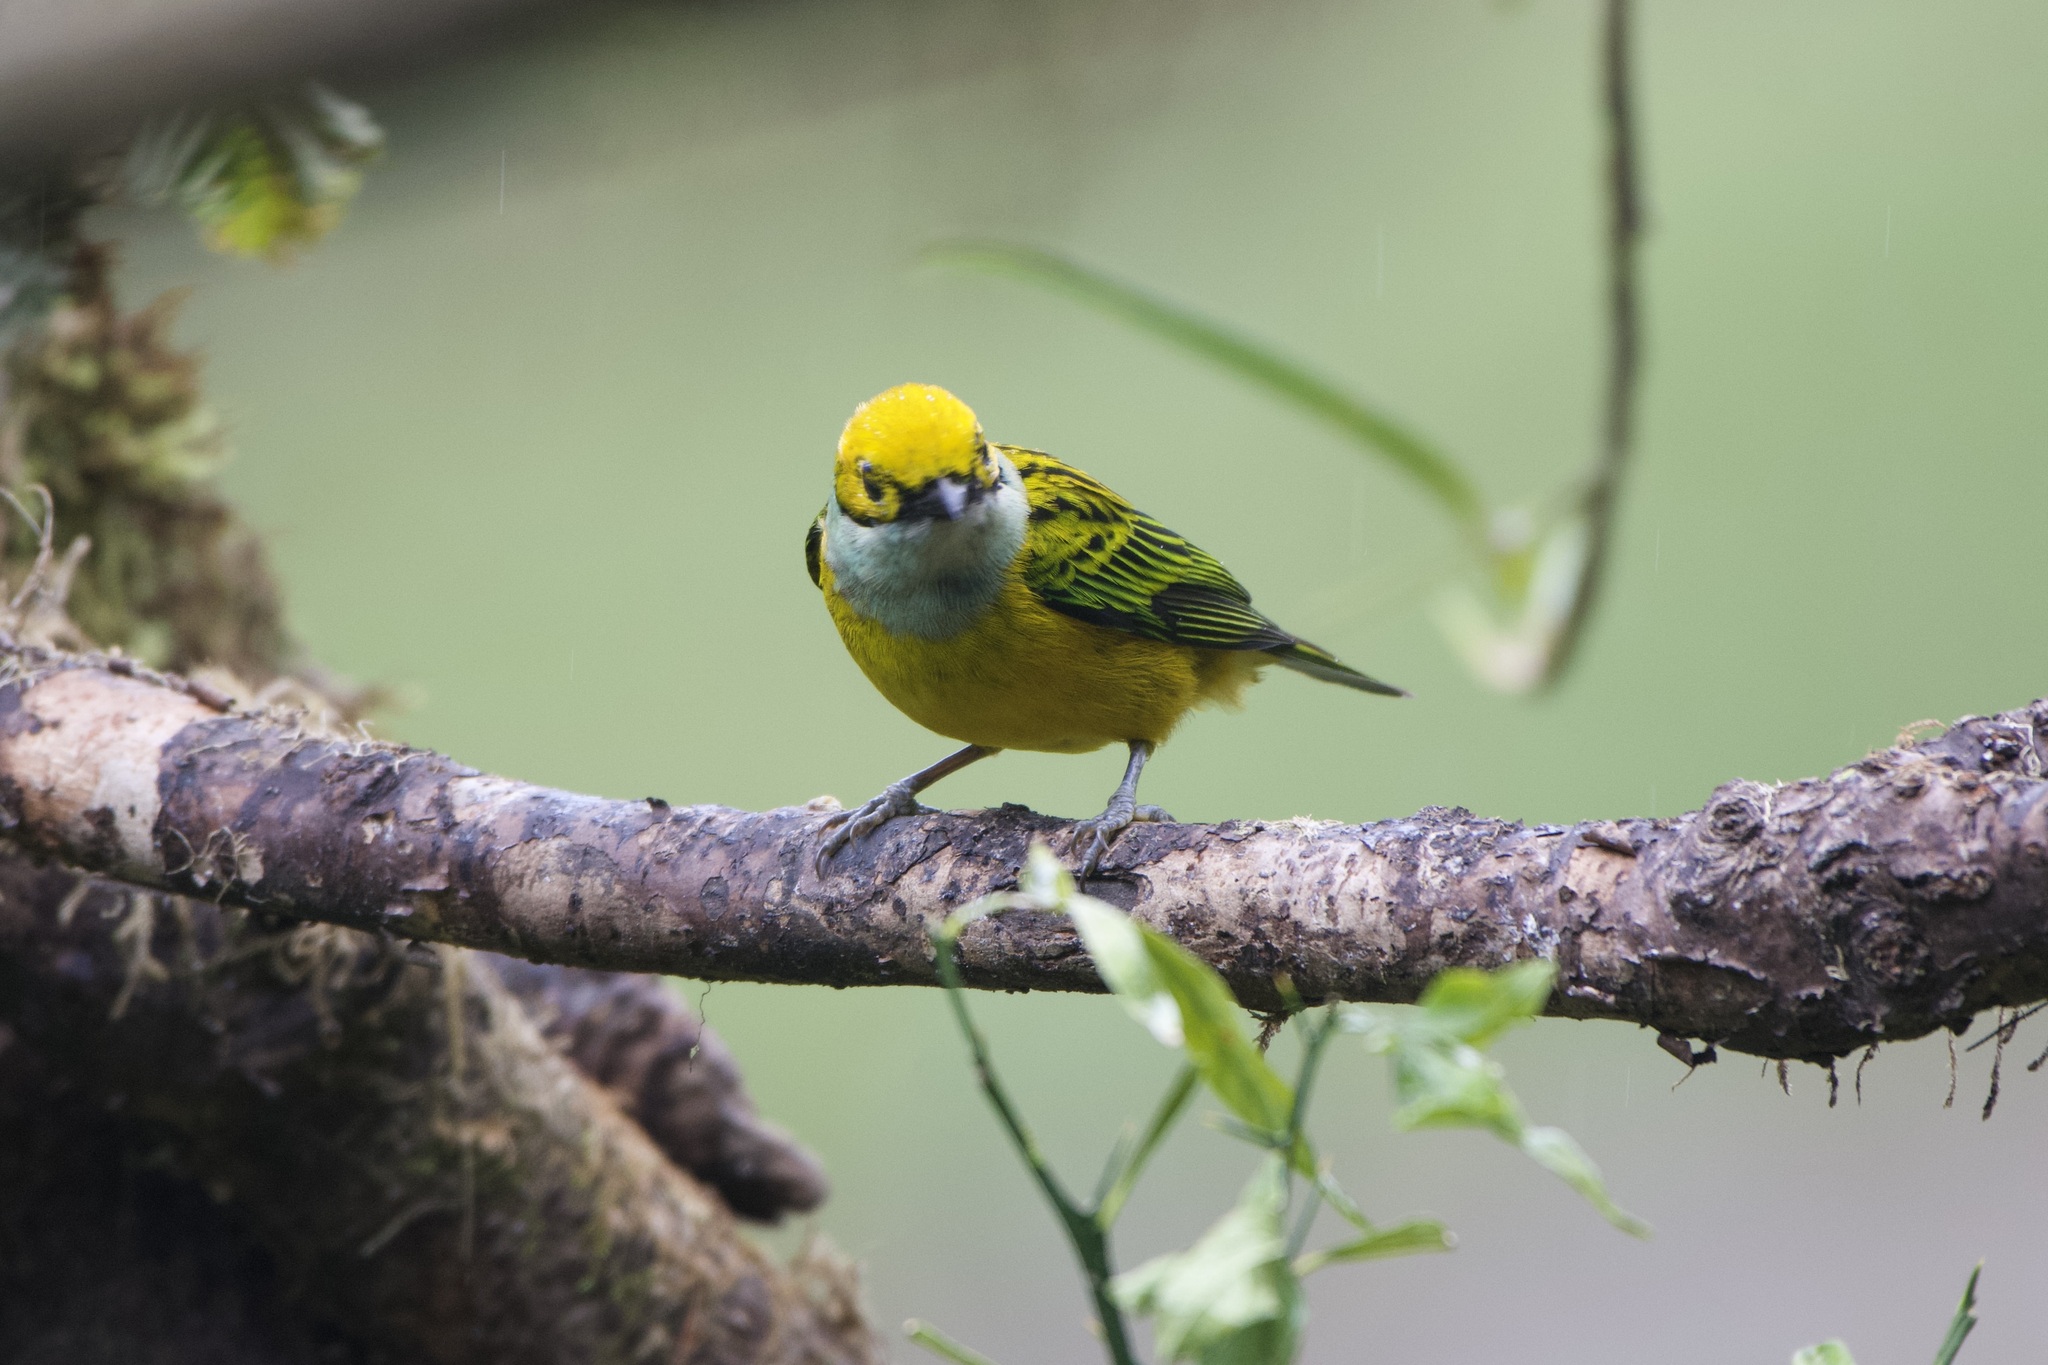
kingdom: Animalia
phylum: Chordata
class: Aves
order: Passeriformes
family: Thraupidae
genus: Tangara
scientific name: Tangara icterocephala
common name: Silver-throated tanager
